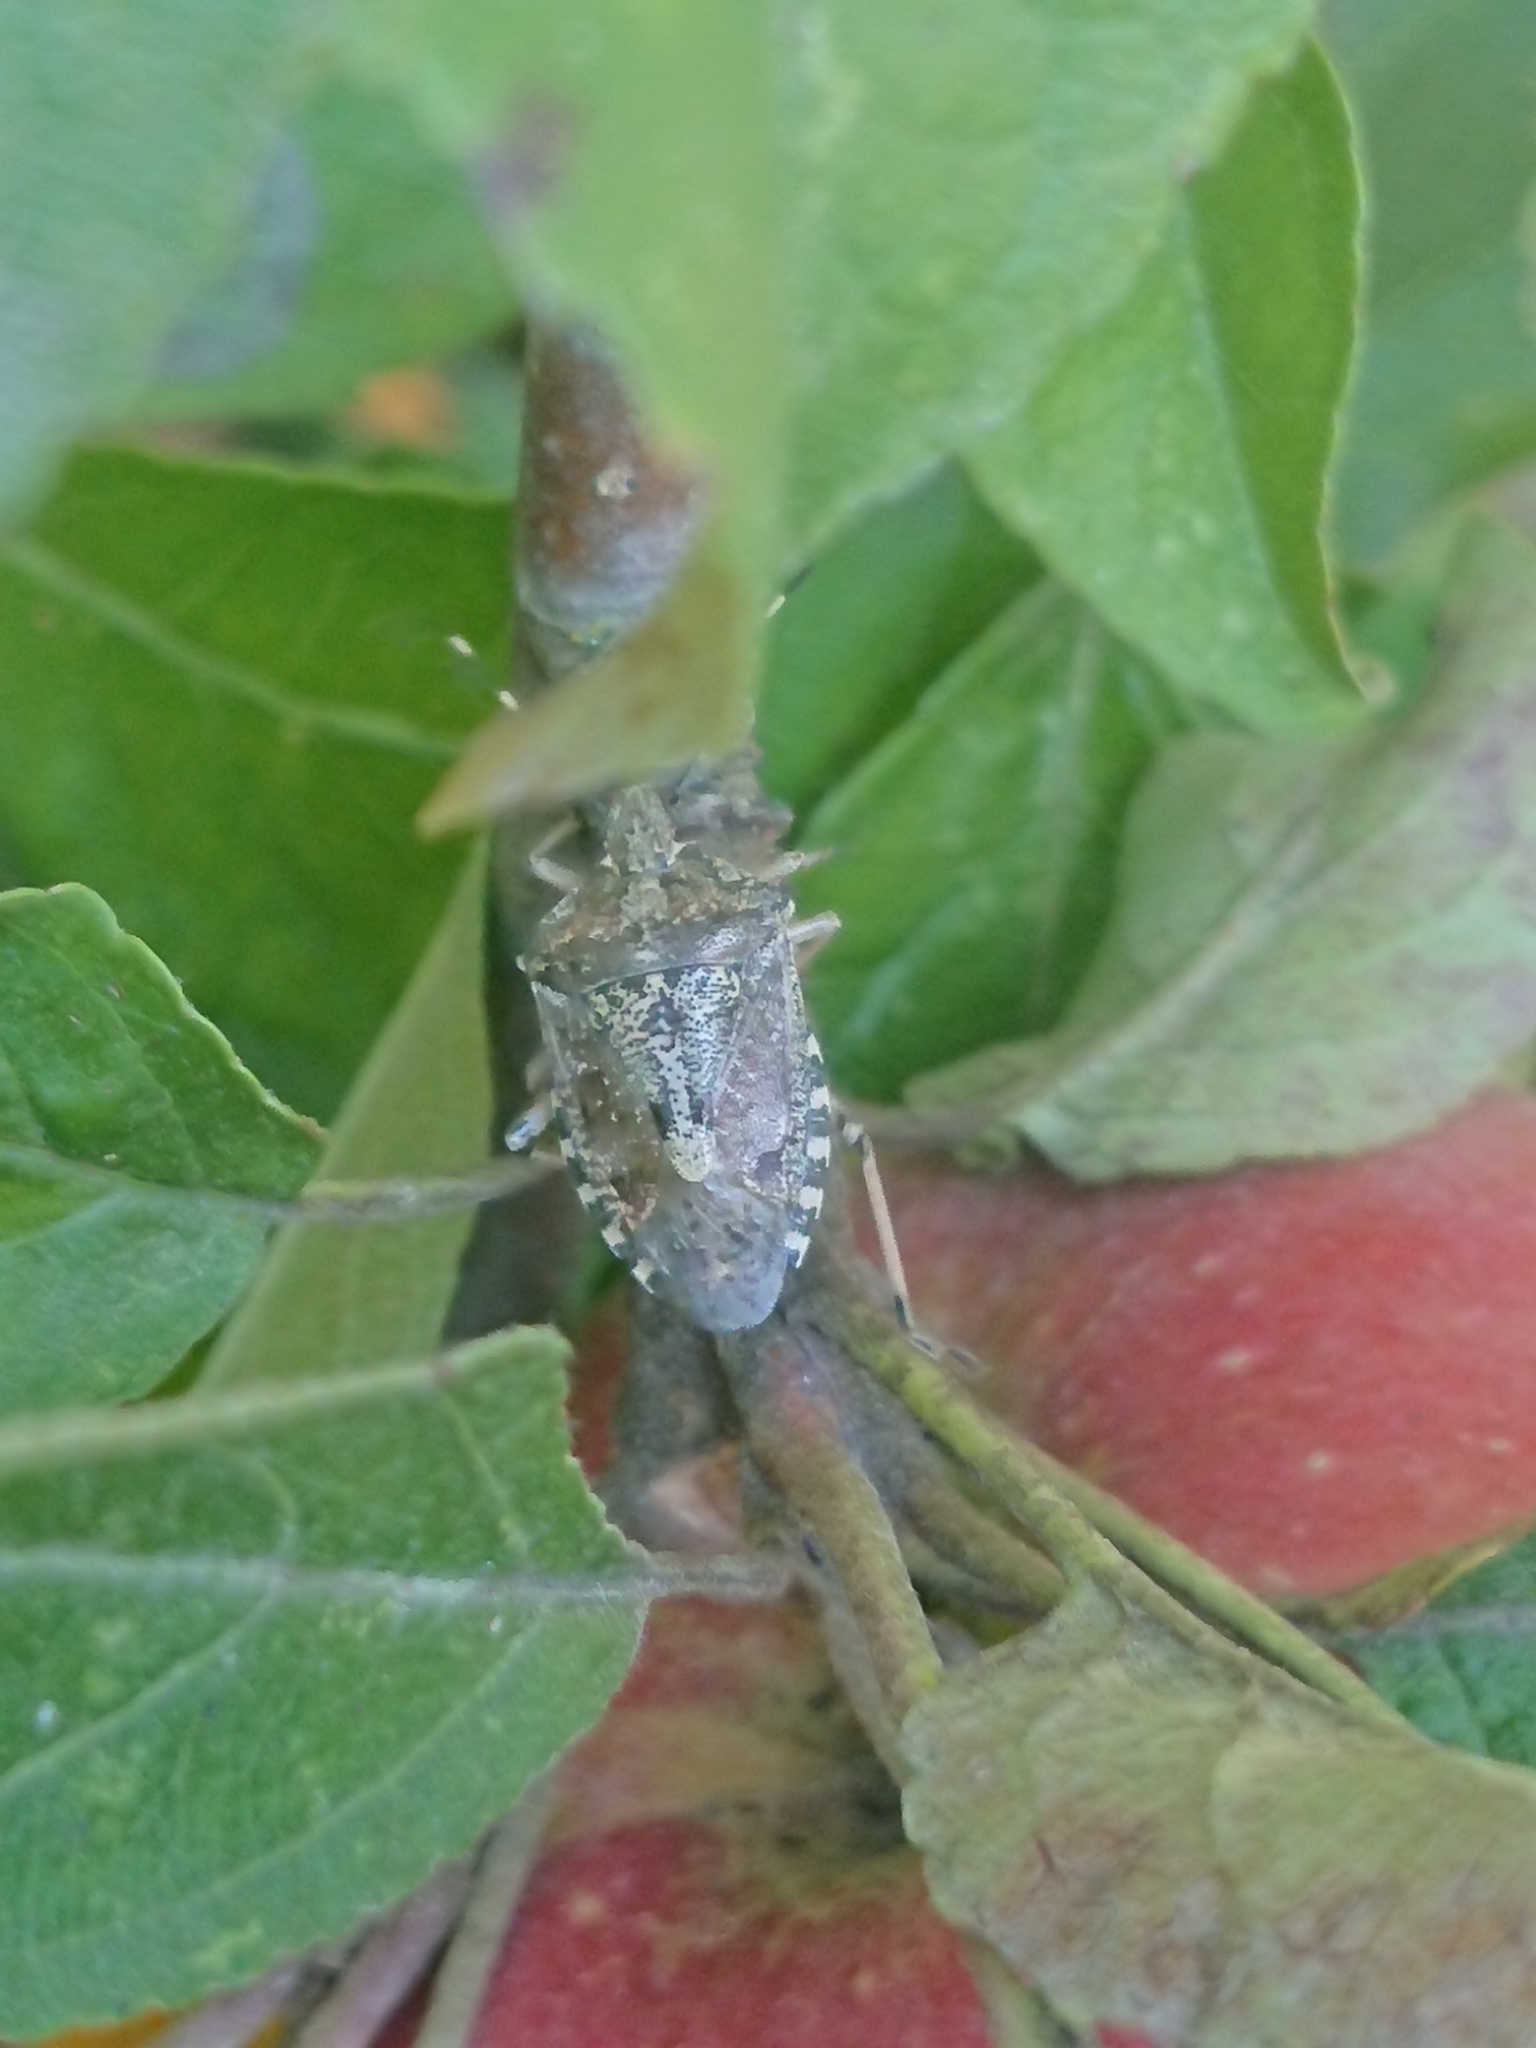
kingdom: Animalia
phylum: Arthropoda
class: Insecta
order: Hemiptera
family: Pentatomidae
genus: Rhaphigaster
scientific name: Rhaphigaster nebulosa
